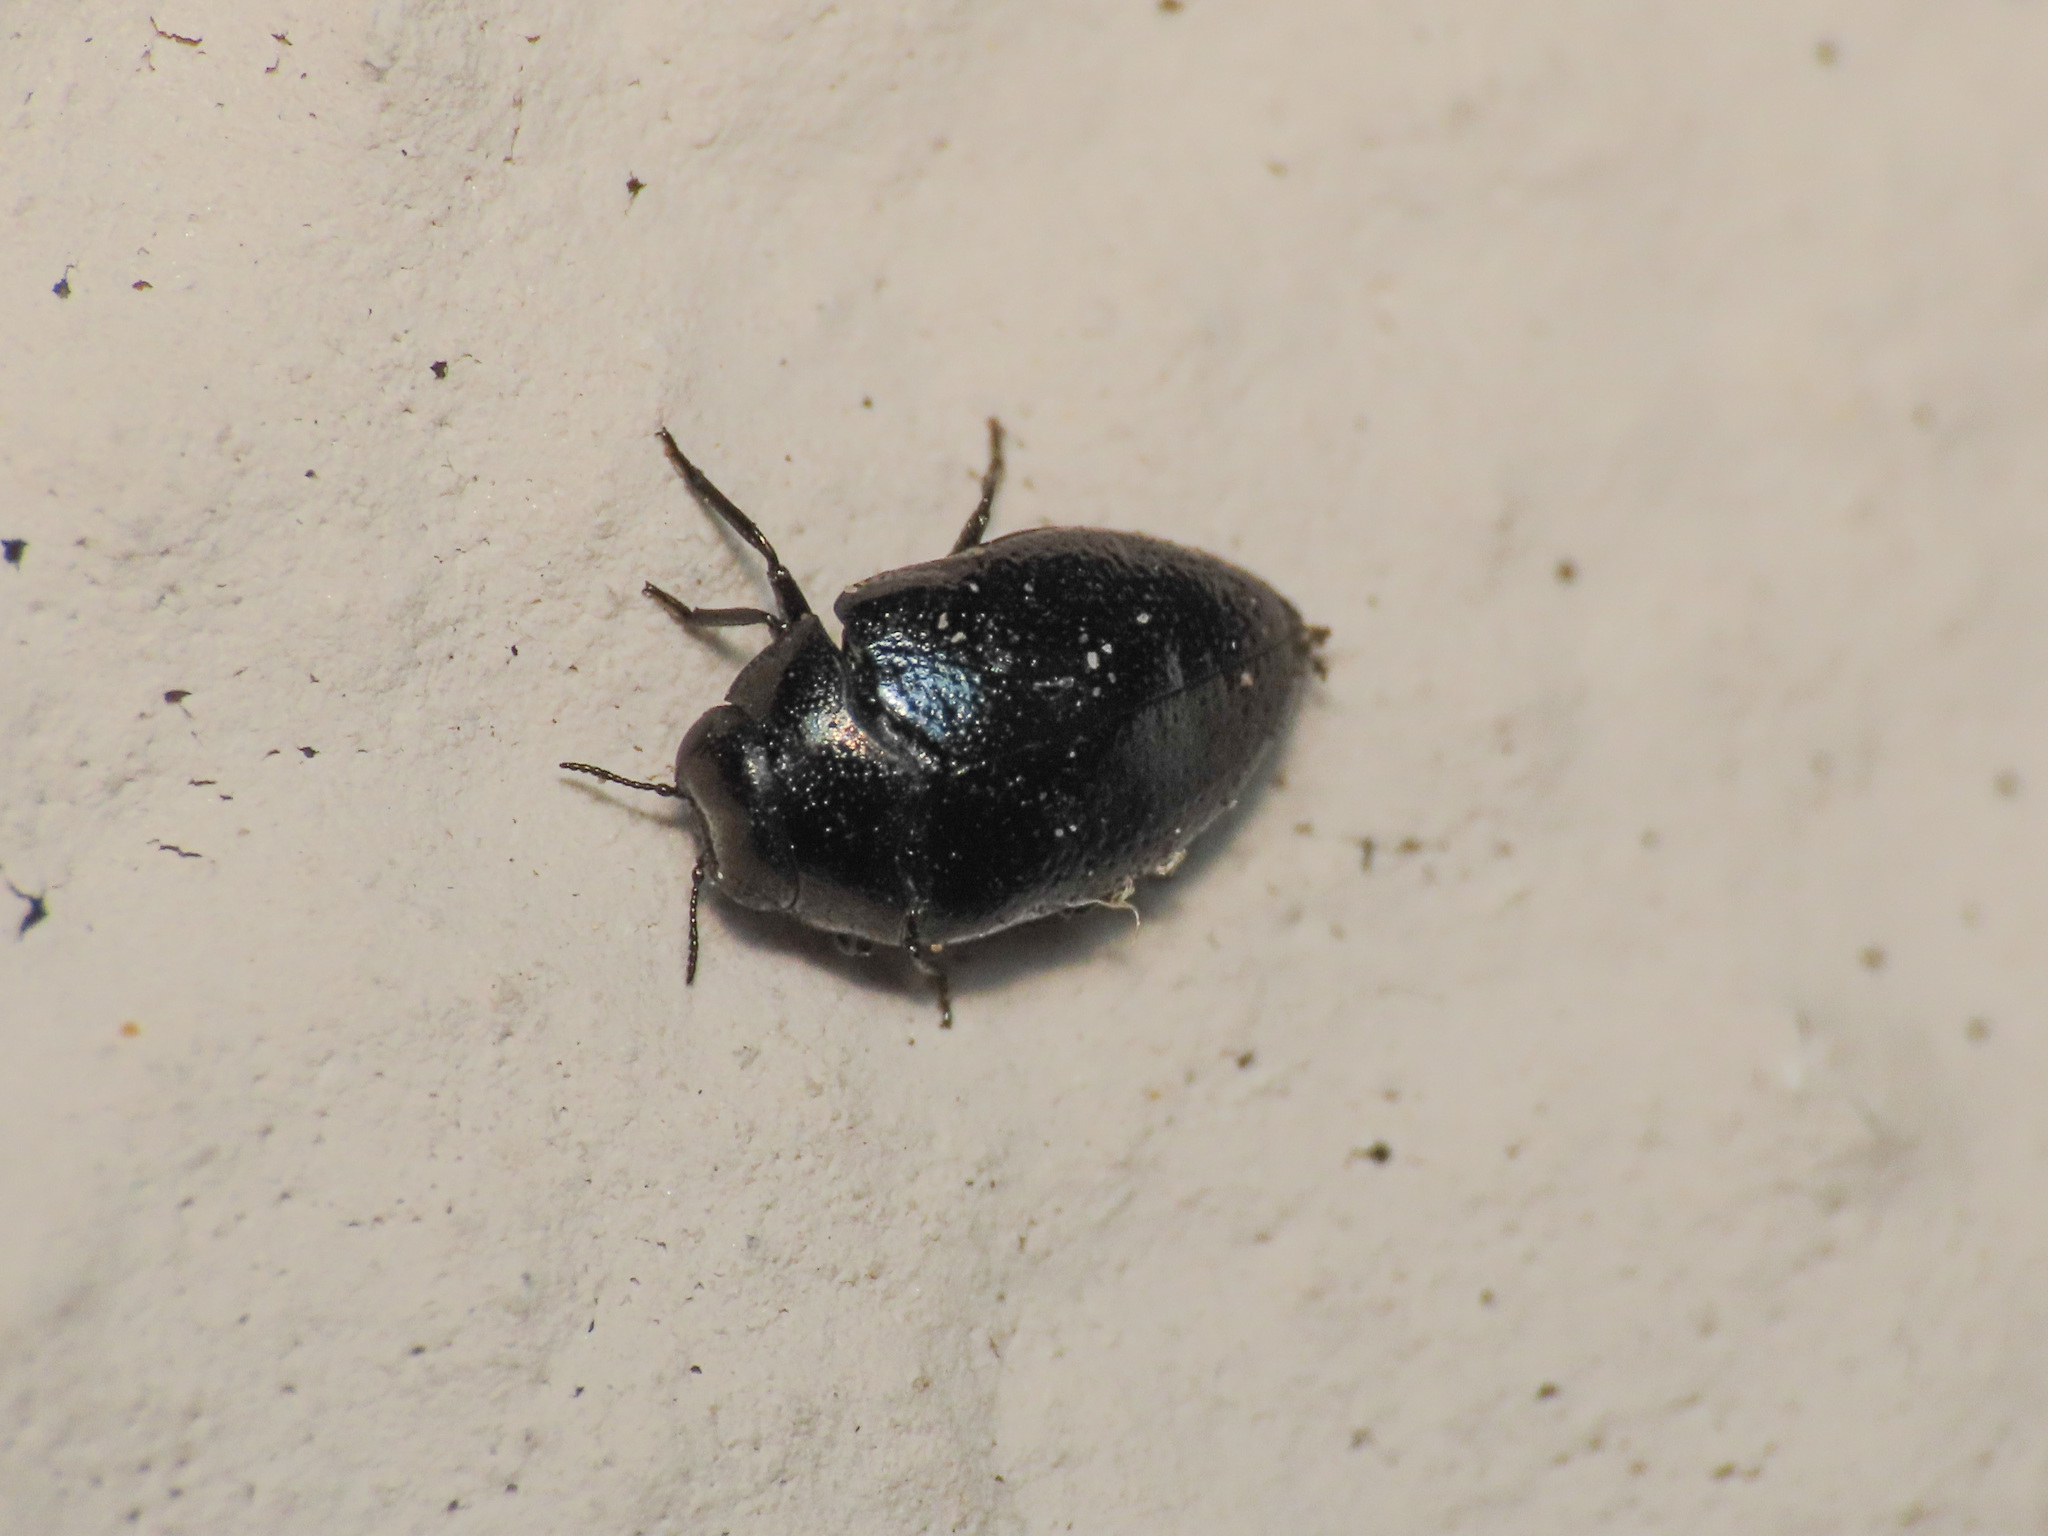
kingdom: Animalia
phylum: Arthropoda
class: Insecta
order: Coleoptera
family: Buprestidae
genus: Trachys
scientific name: Trachys troglodytes
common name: Devil's-bit jewel beetle
